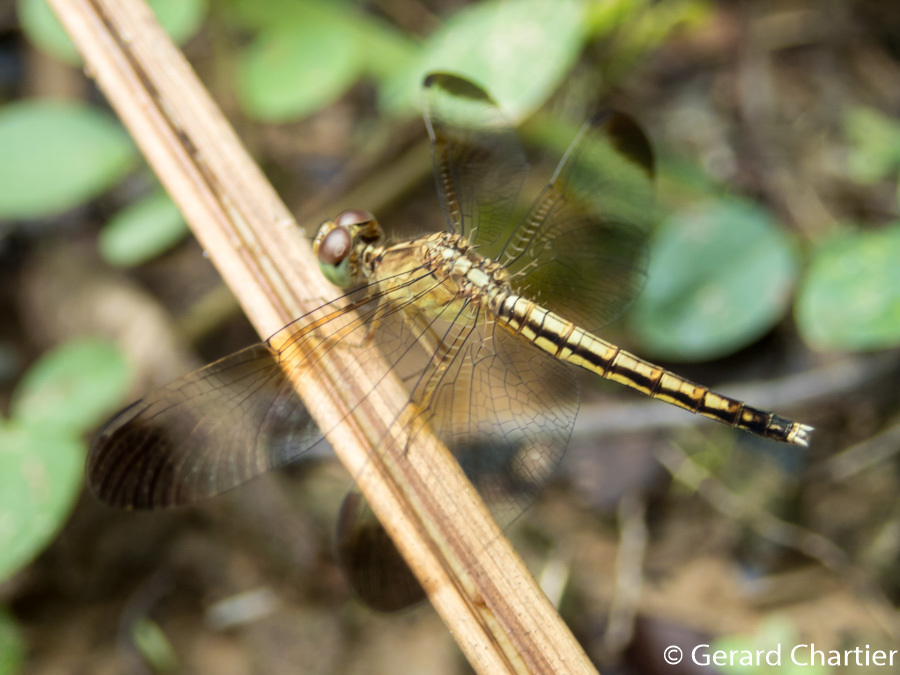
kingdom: Animalia
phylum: Arthropoda
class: Insecta
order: Odonata
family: Libellulidae
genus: Neurothemis
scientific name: Neurothemis tullia
